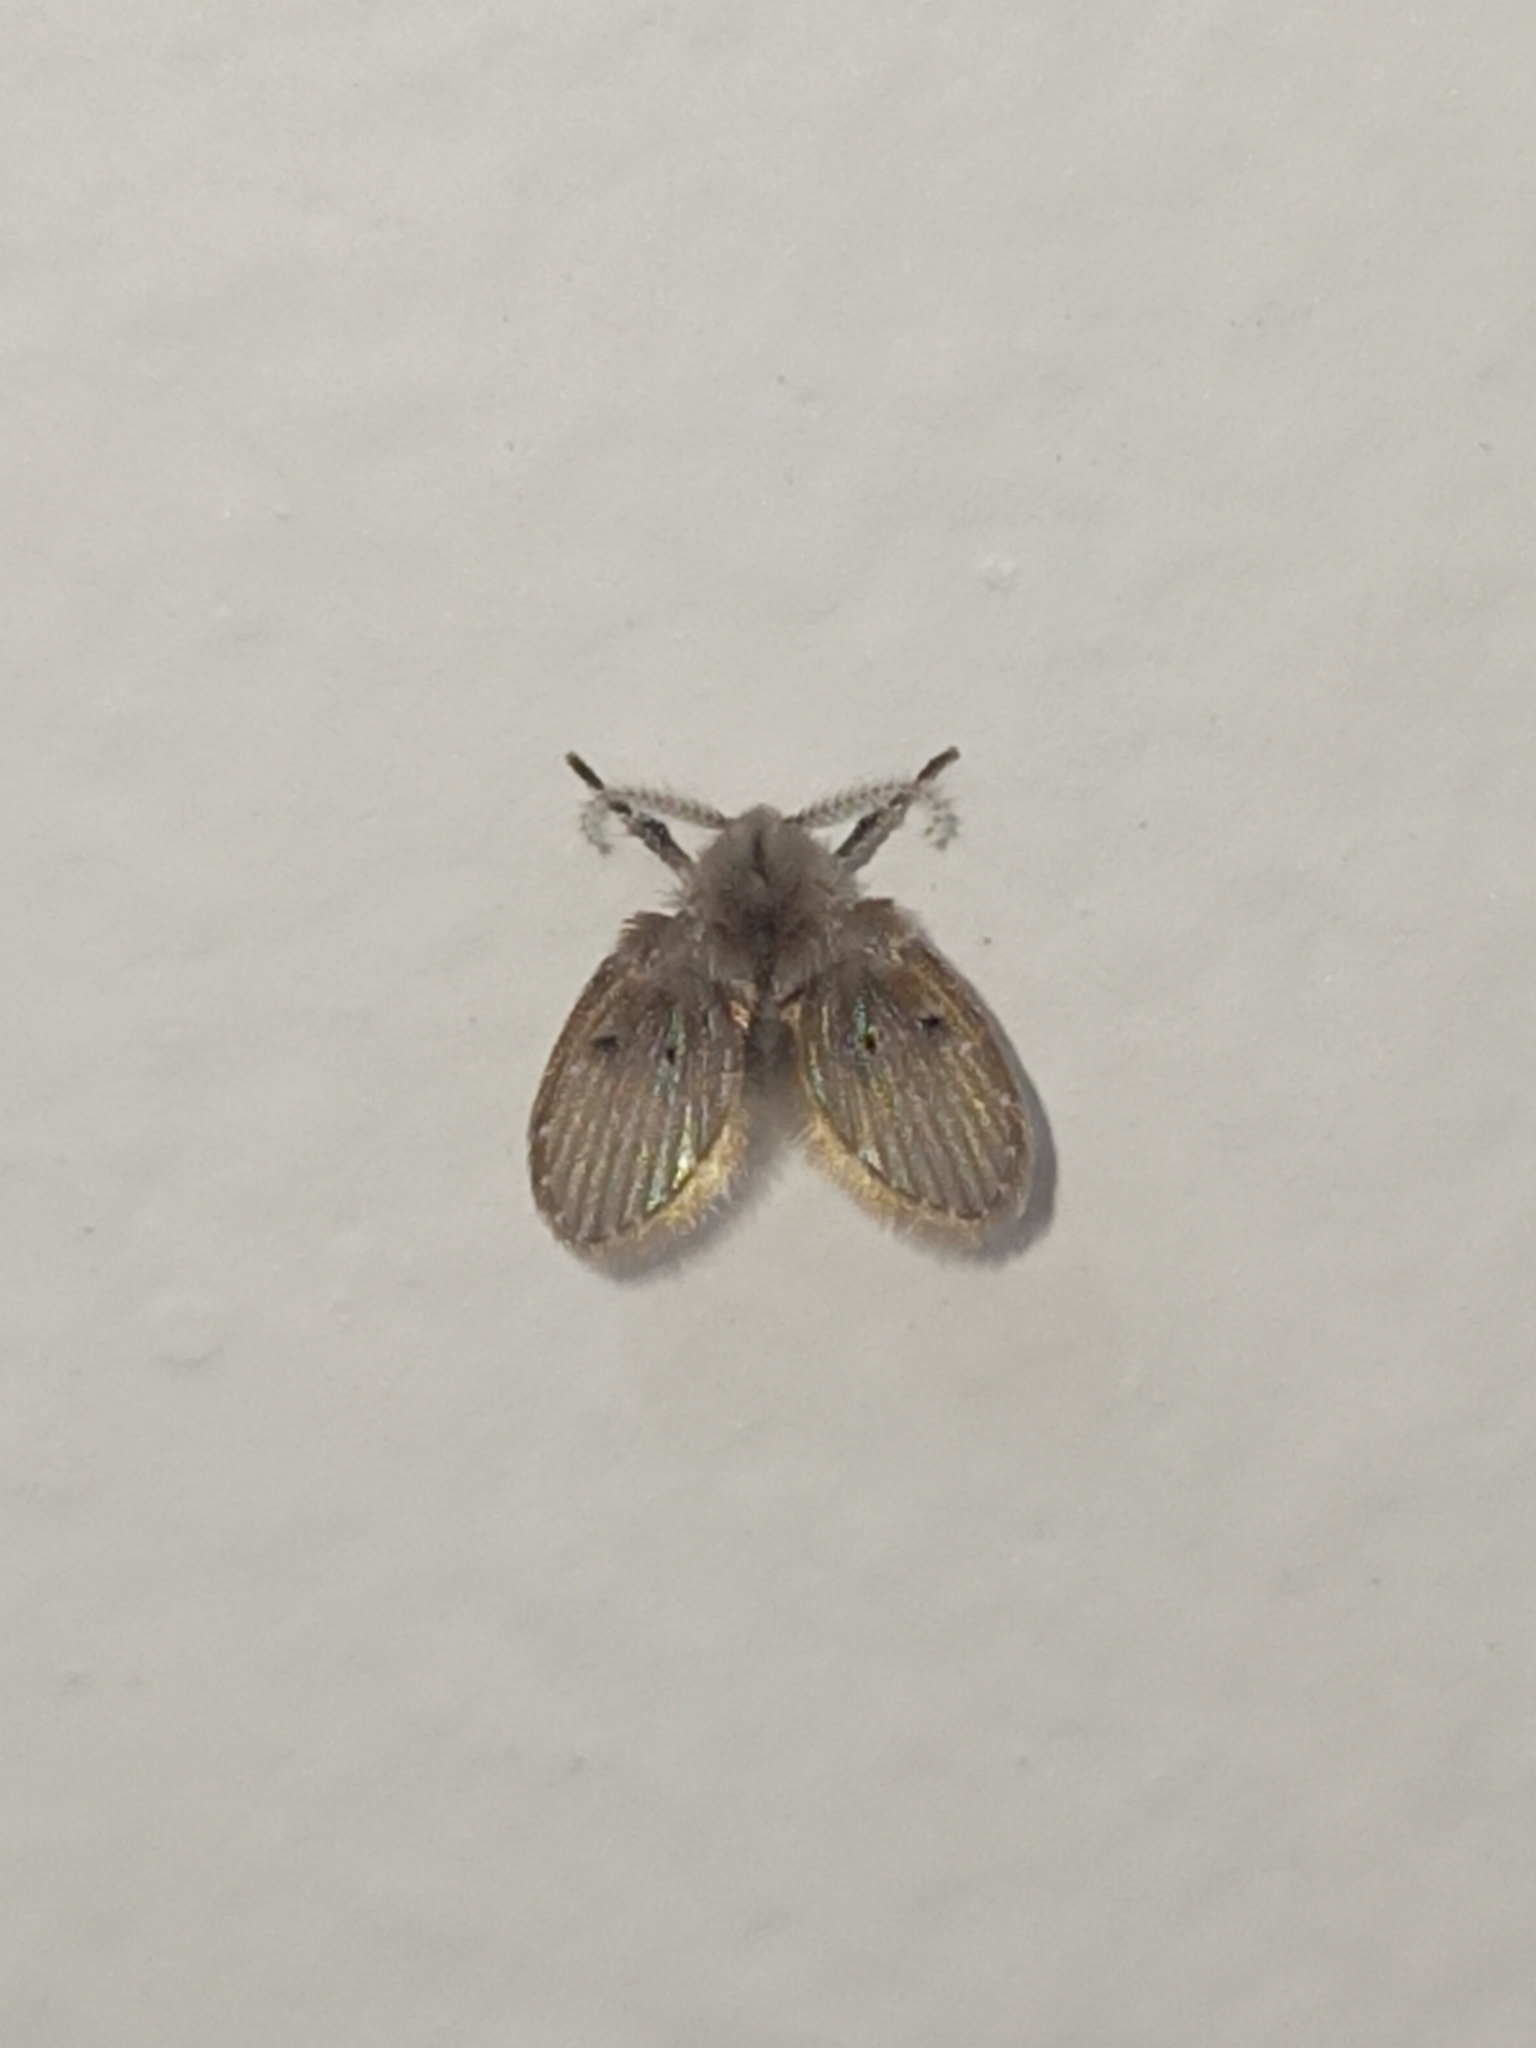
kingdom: Animalia
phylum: Arthropoda
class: Insecta
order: Diptera
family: Psychodidae
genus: Clogmia
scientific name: Clogmia albipunctatus
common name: White-spotted moth fly
